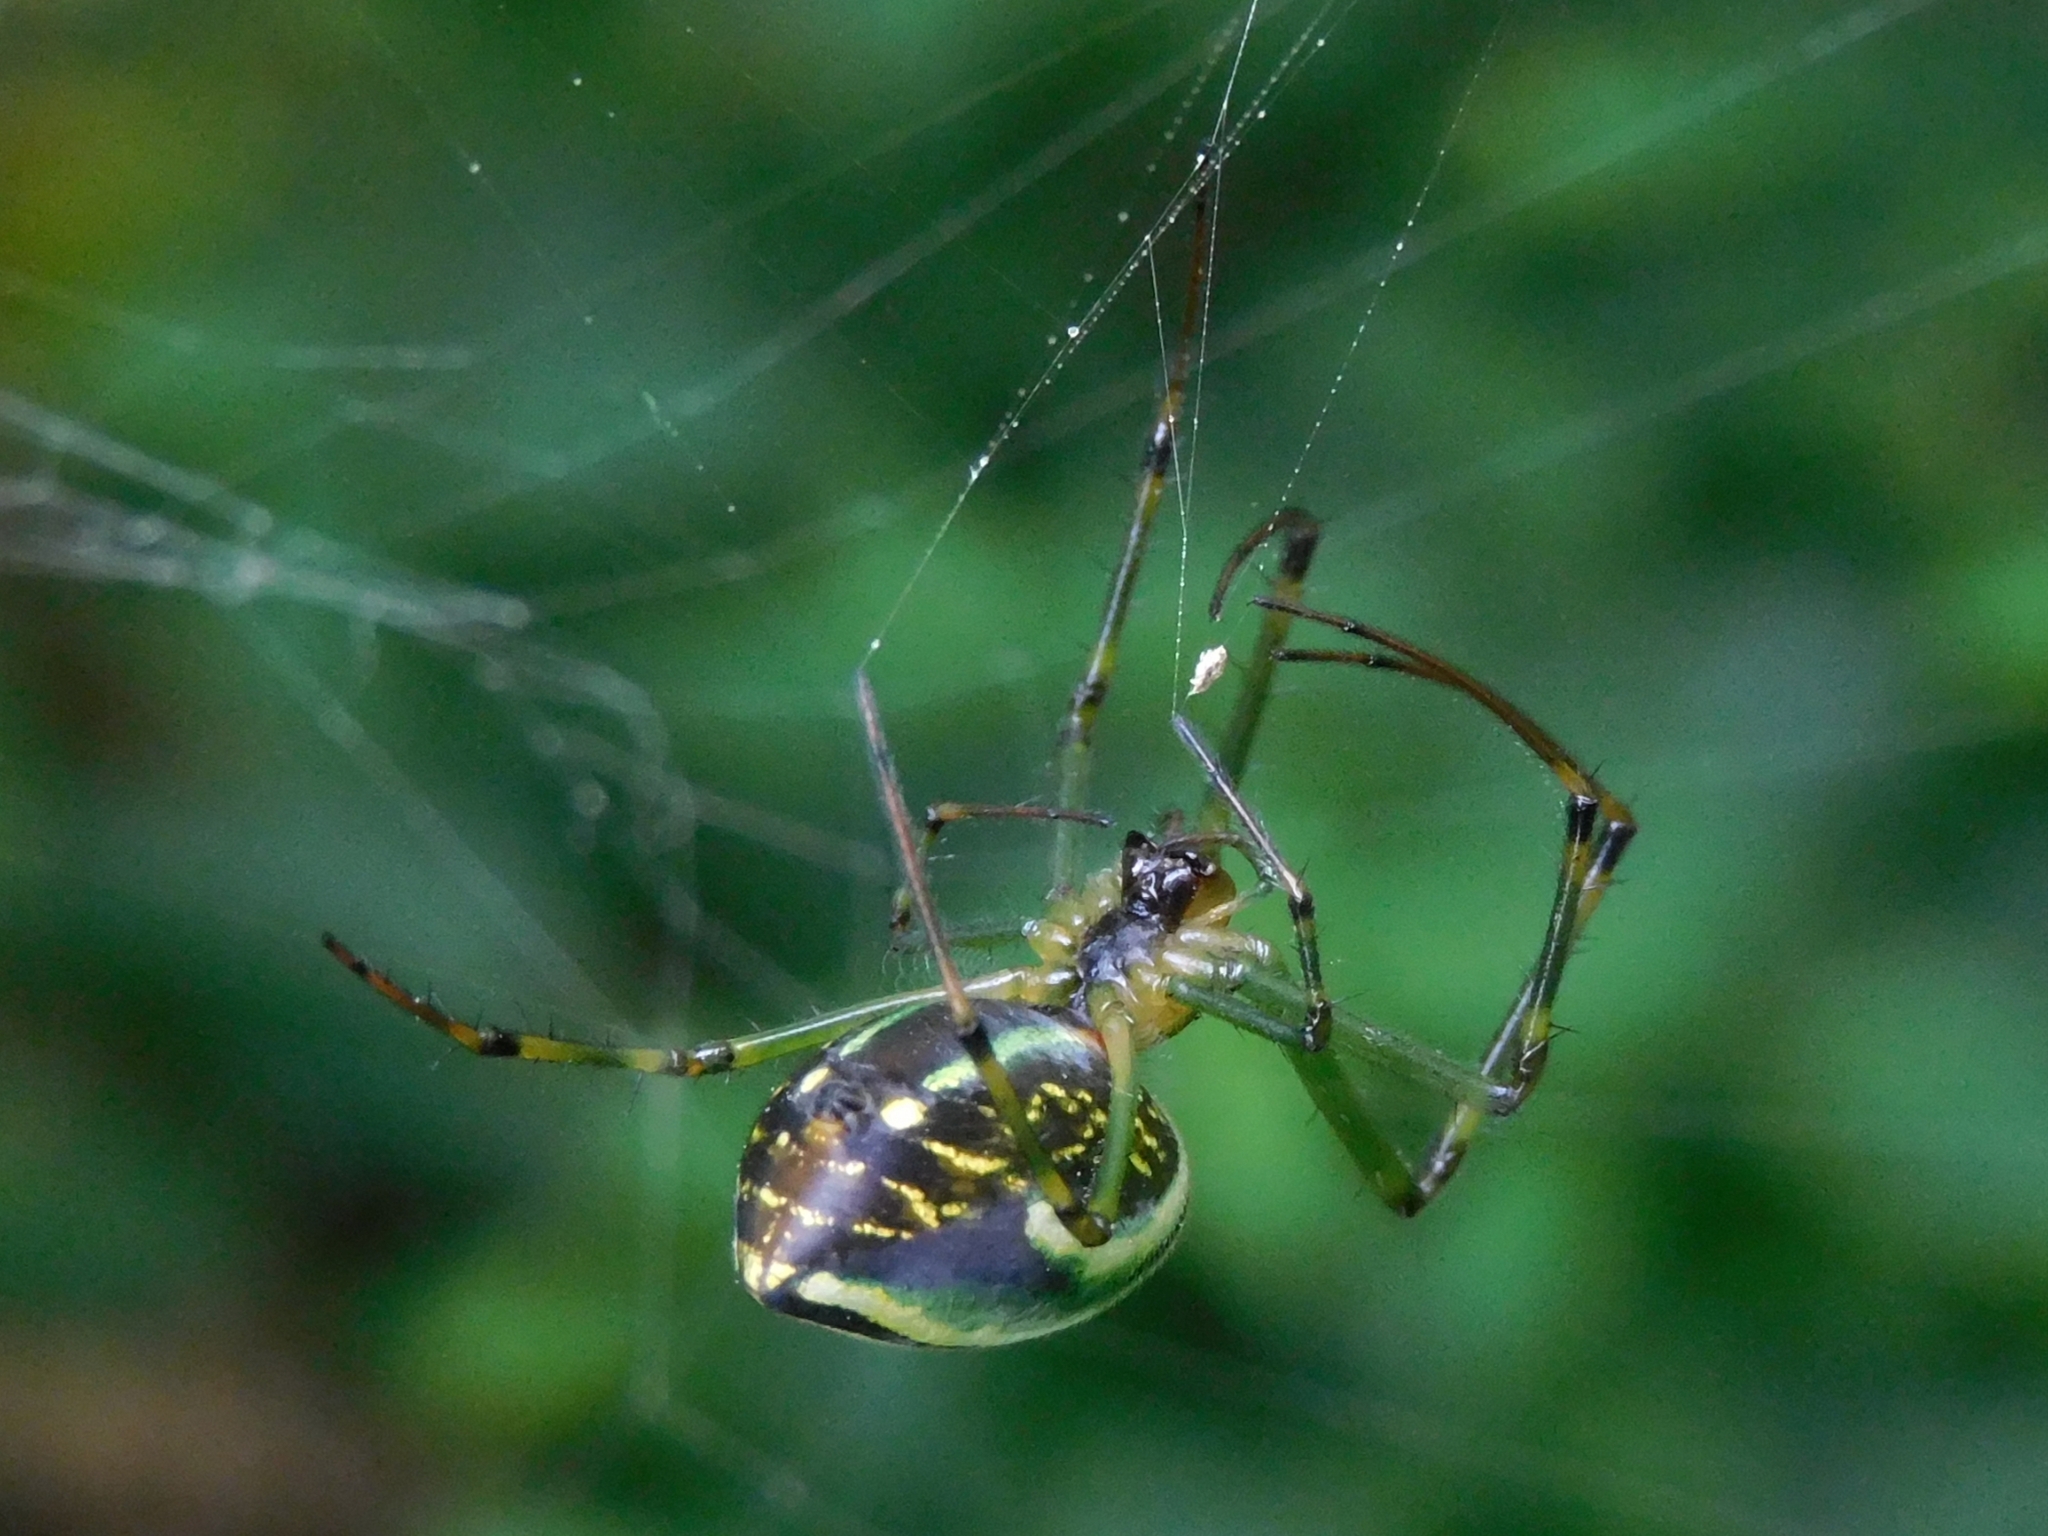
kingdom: Animalia
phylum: Arthropoda
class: Arachnida
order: Araneae
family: Tetragnathidae
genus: Leucauge
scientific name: Leucauge celebesiana
